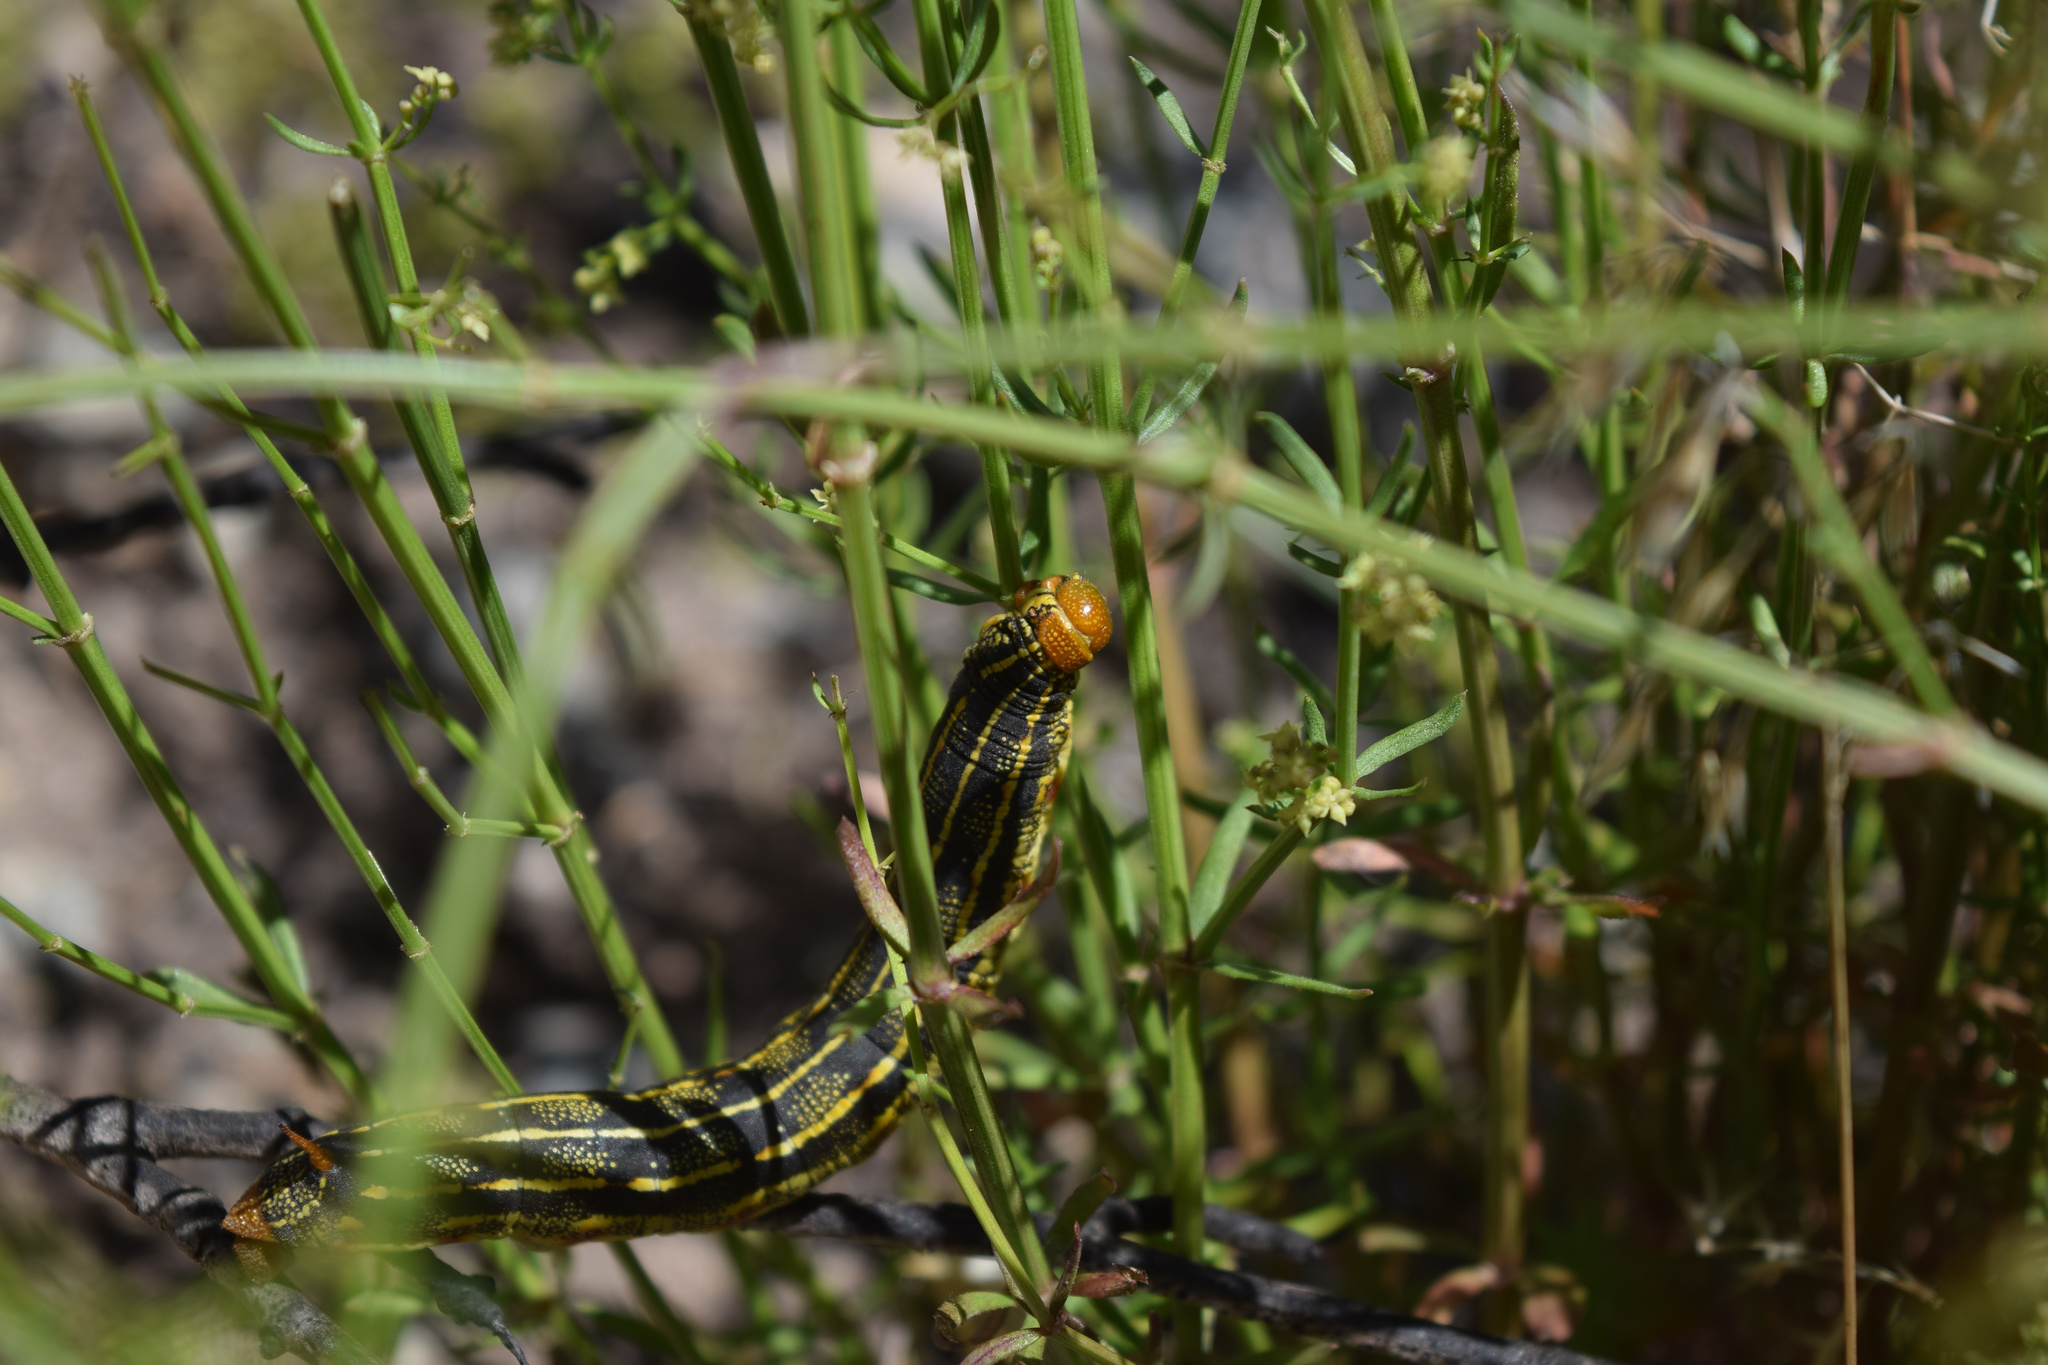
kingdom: Animalia
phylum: Arthropoda
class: Insecta
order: Lepidoptera
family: Sphingidae
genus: Hyles
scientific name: Hyles lineata
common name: White-lined sphinx
